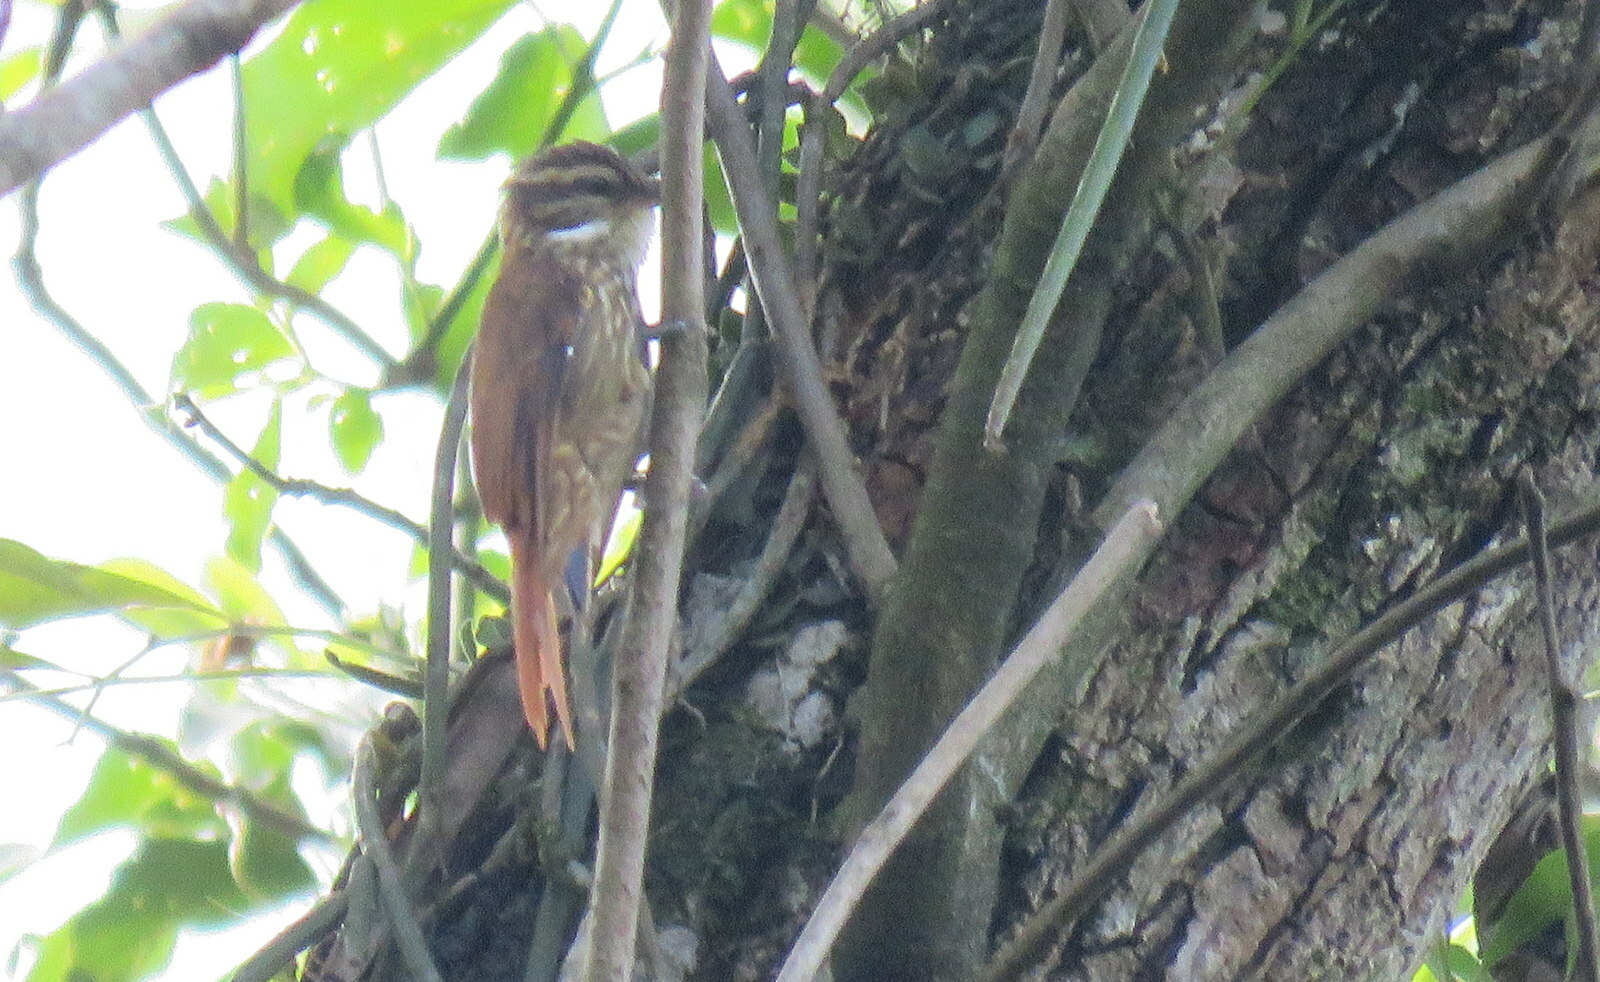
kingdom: Animalia
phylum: Chordata
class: Aves
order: Passeriformes
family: Furnariidae
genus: Xenops
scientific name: Xenops rutilans
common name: Streaked xenops
